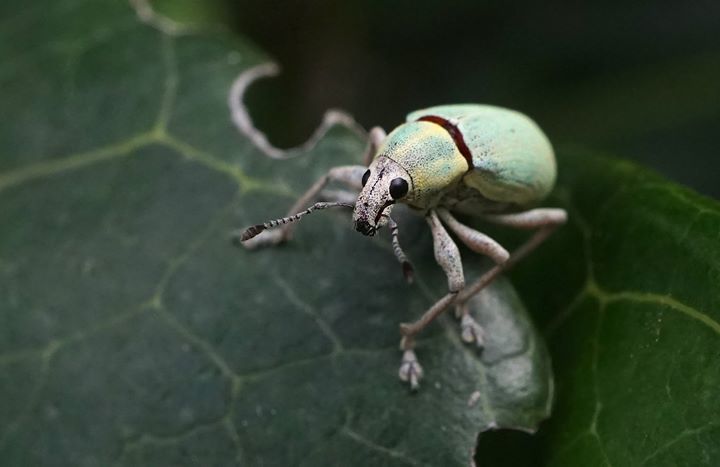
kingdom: Animalia
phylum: Arthropoda
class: Insecta
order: Coleoptera
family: Curculionidae
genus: Pachnaeus
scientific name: Pachnaeus litus
